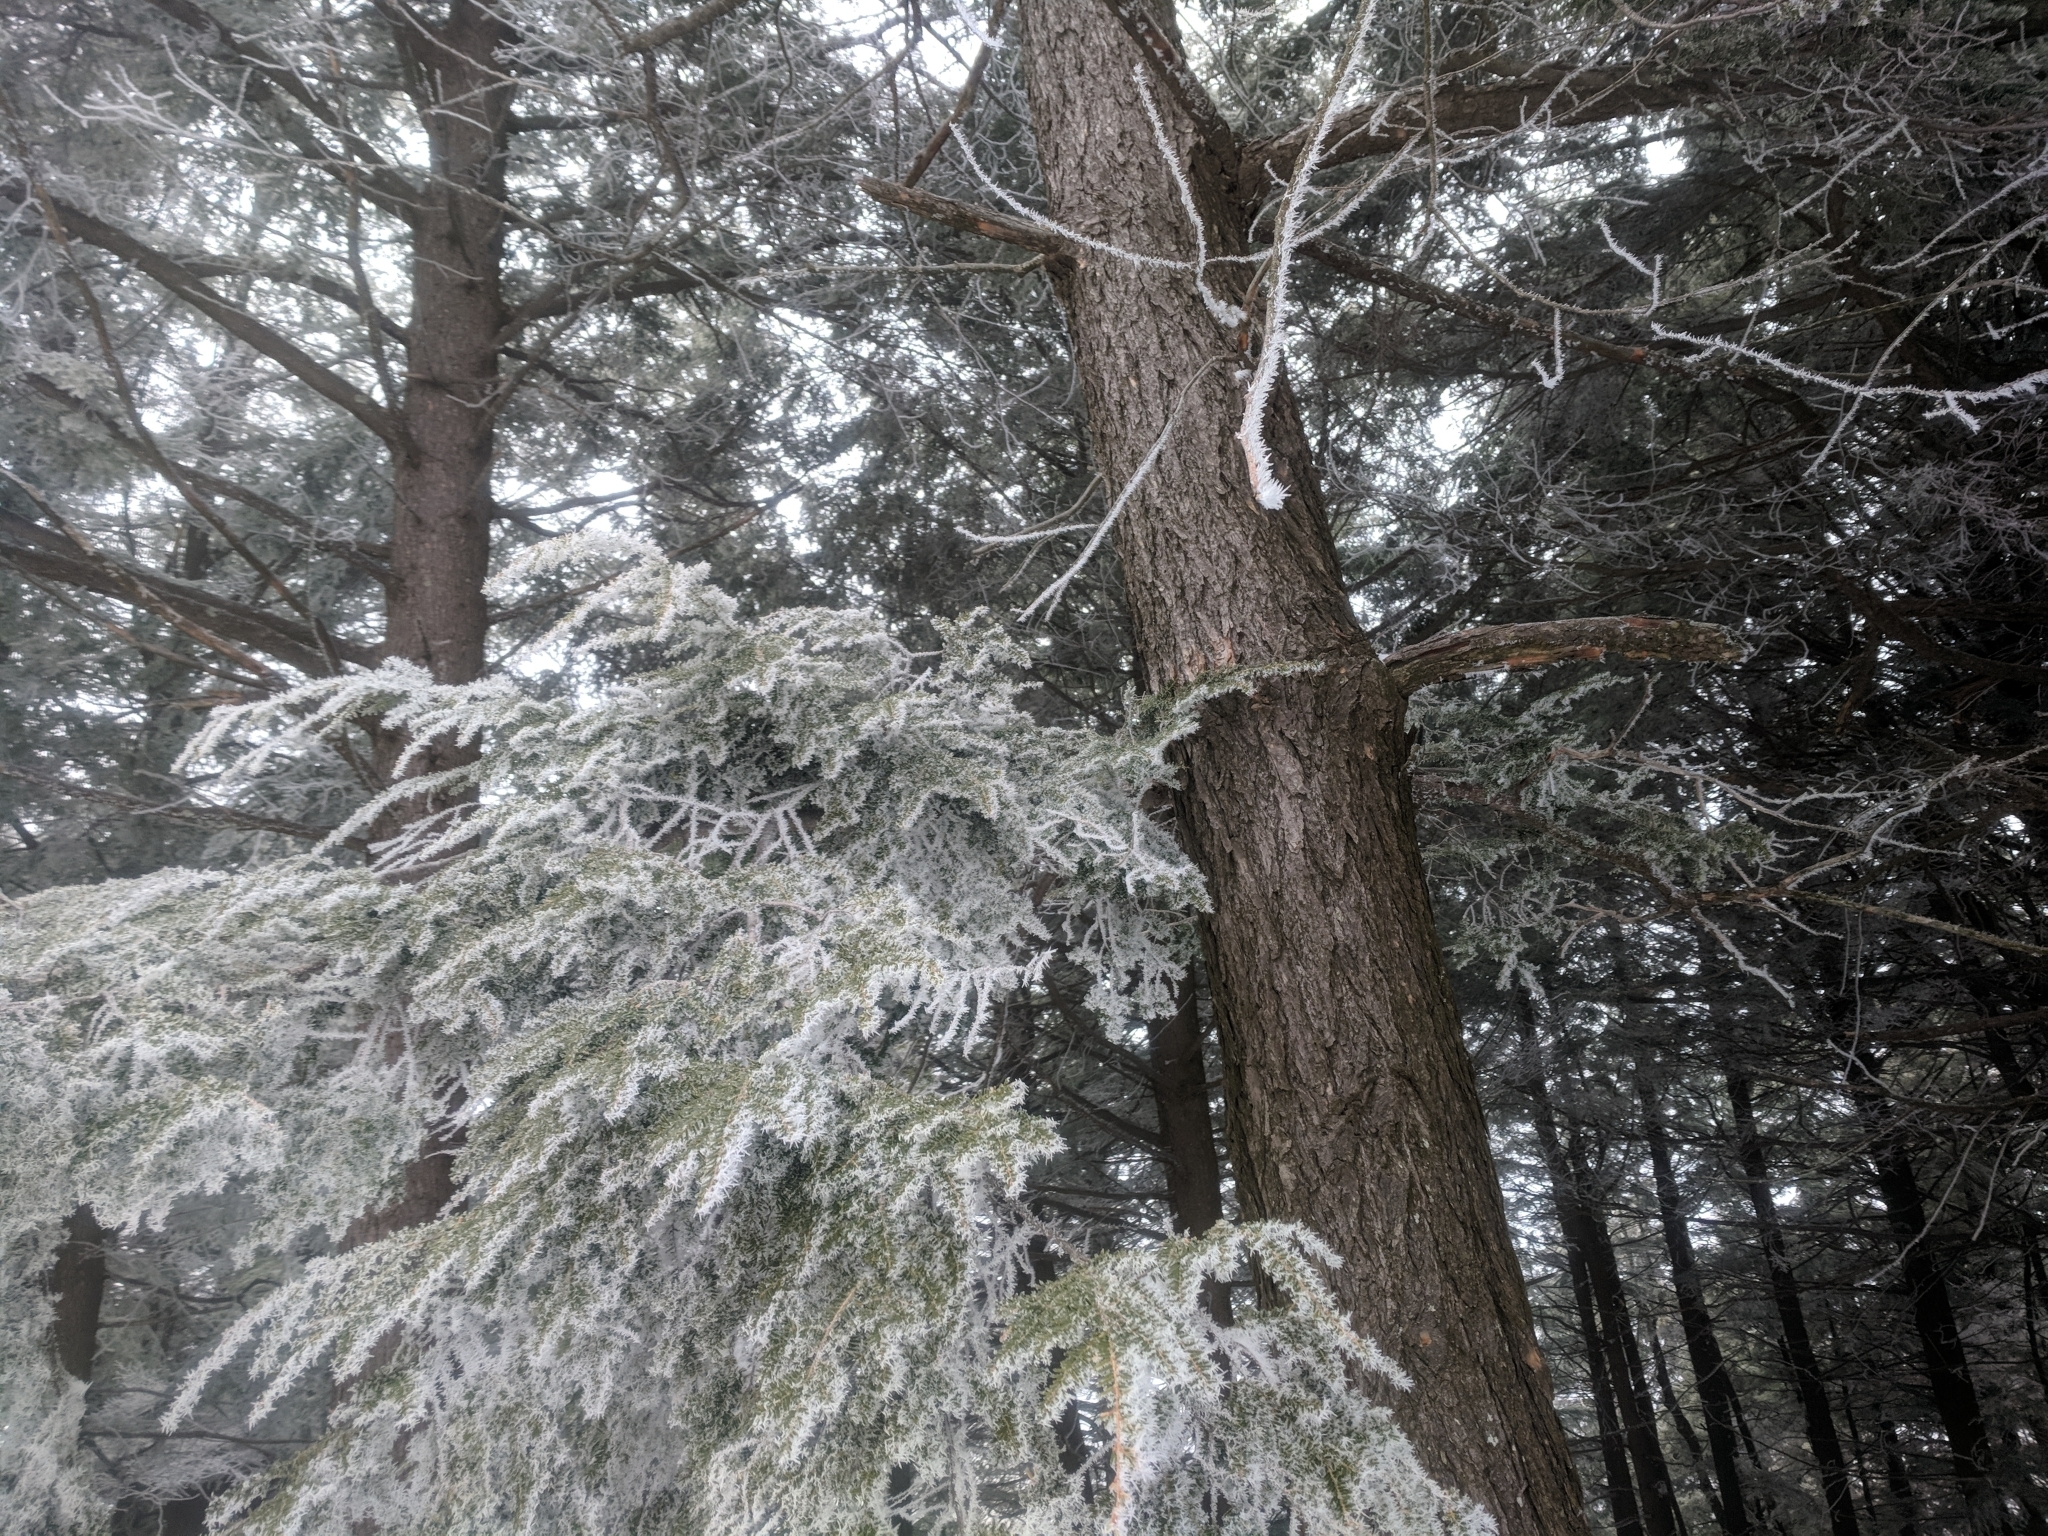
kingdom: Plantae
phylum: Tracheophyta
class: Pinopsida
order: Pinales
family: Pinaceae
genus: Tsuga
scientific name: Tsuga canadensis
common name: Eastern hemlock
